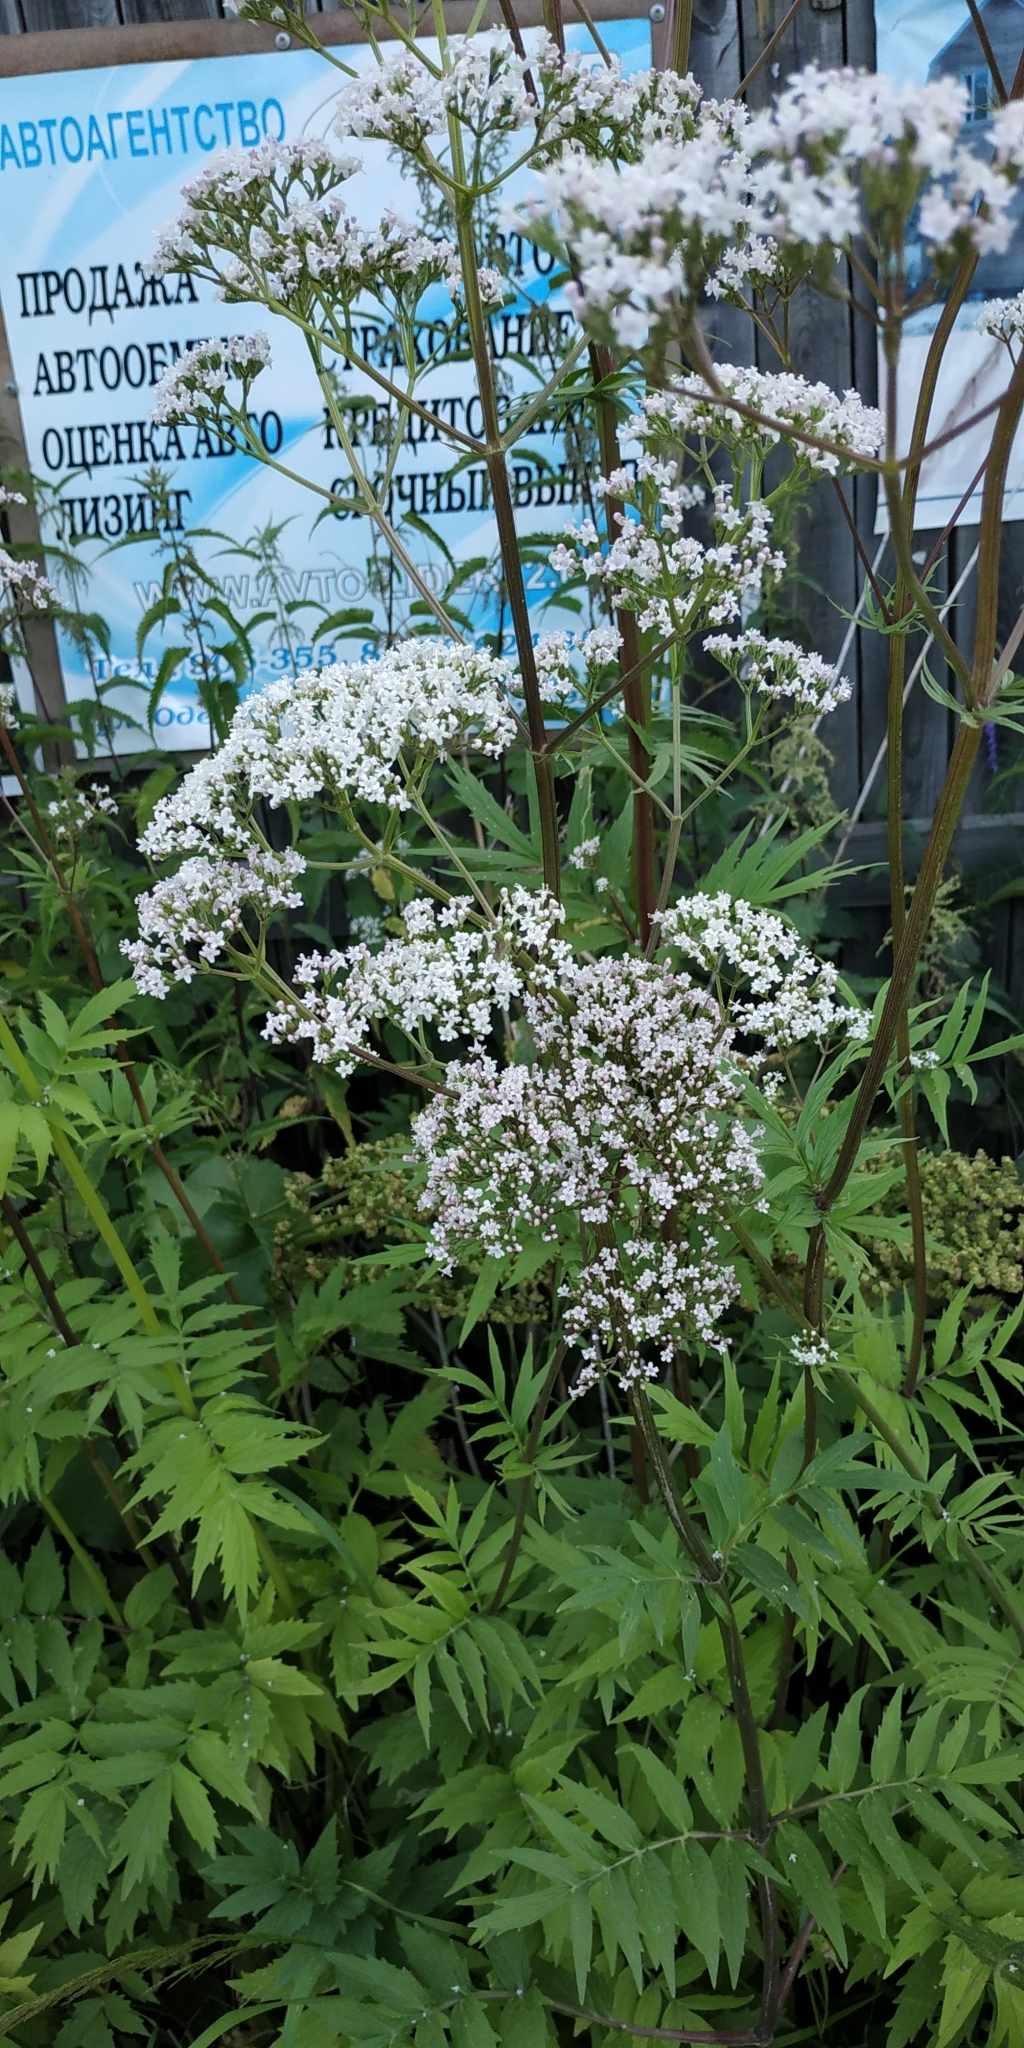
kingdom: Plantae
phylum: Tracheophyta
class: Magnoliopsida
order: Dipsacales
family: Caprifoliaceae
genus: Valeriana
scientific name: Valeriana wolgensis
